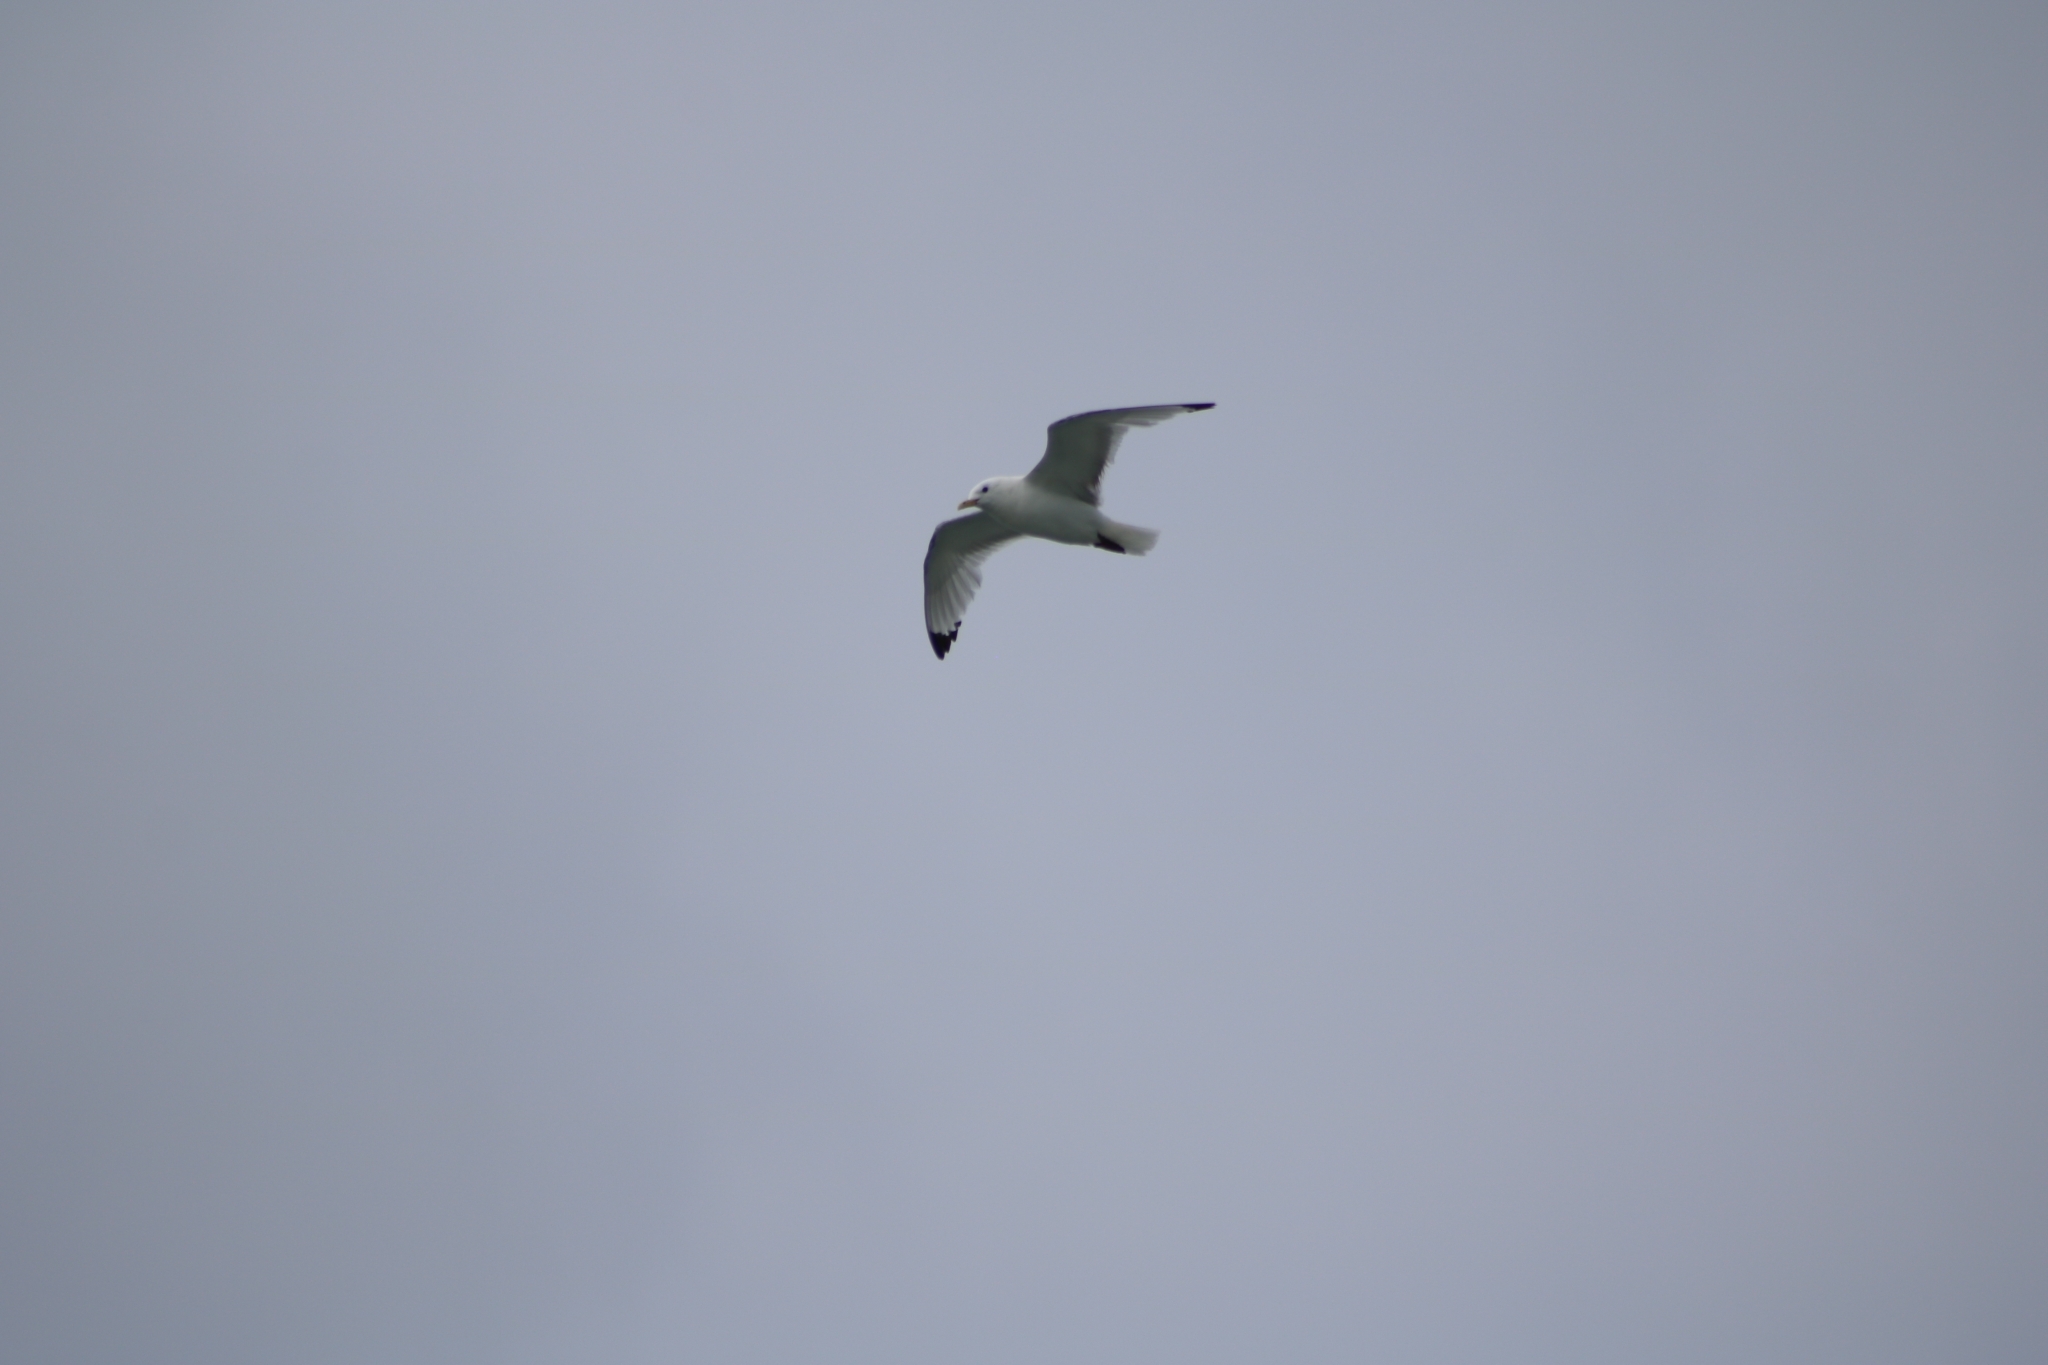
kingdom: Animalia
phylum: Chordata
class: Aves
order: Charadriiformes
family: Laridae
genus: Rissa
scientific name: Rissa tridactyla
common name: Black-legged kittiwake
